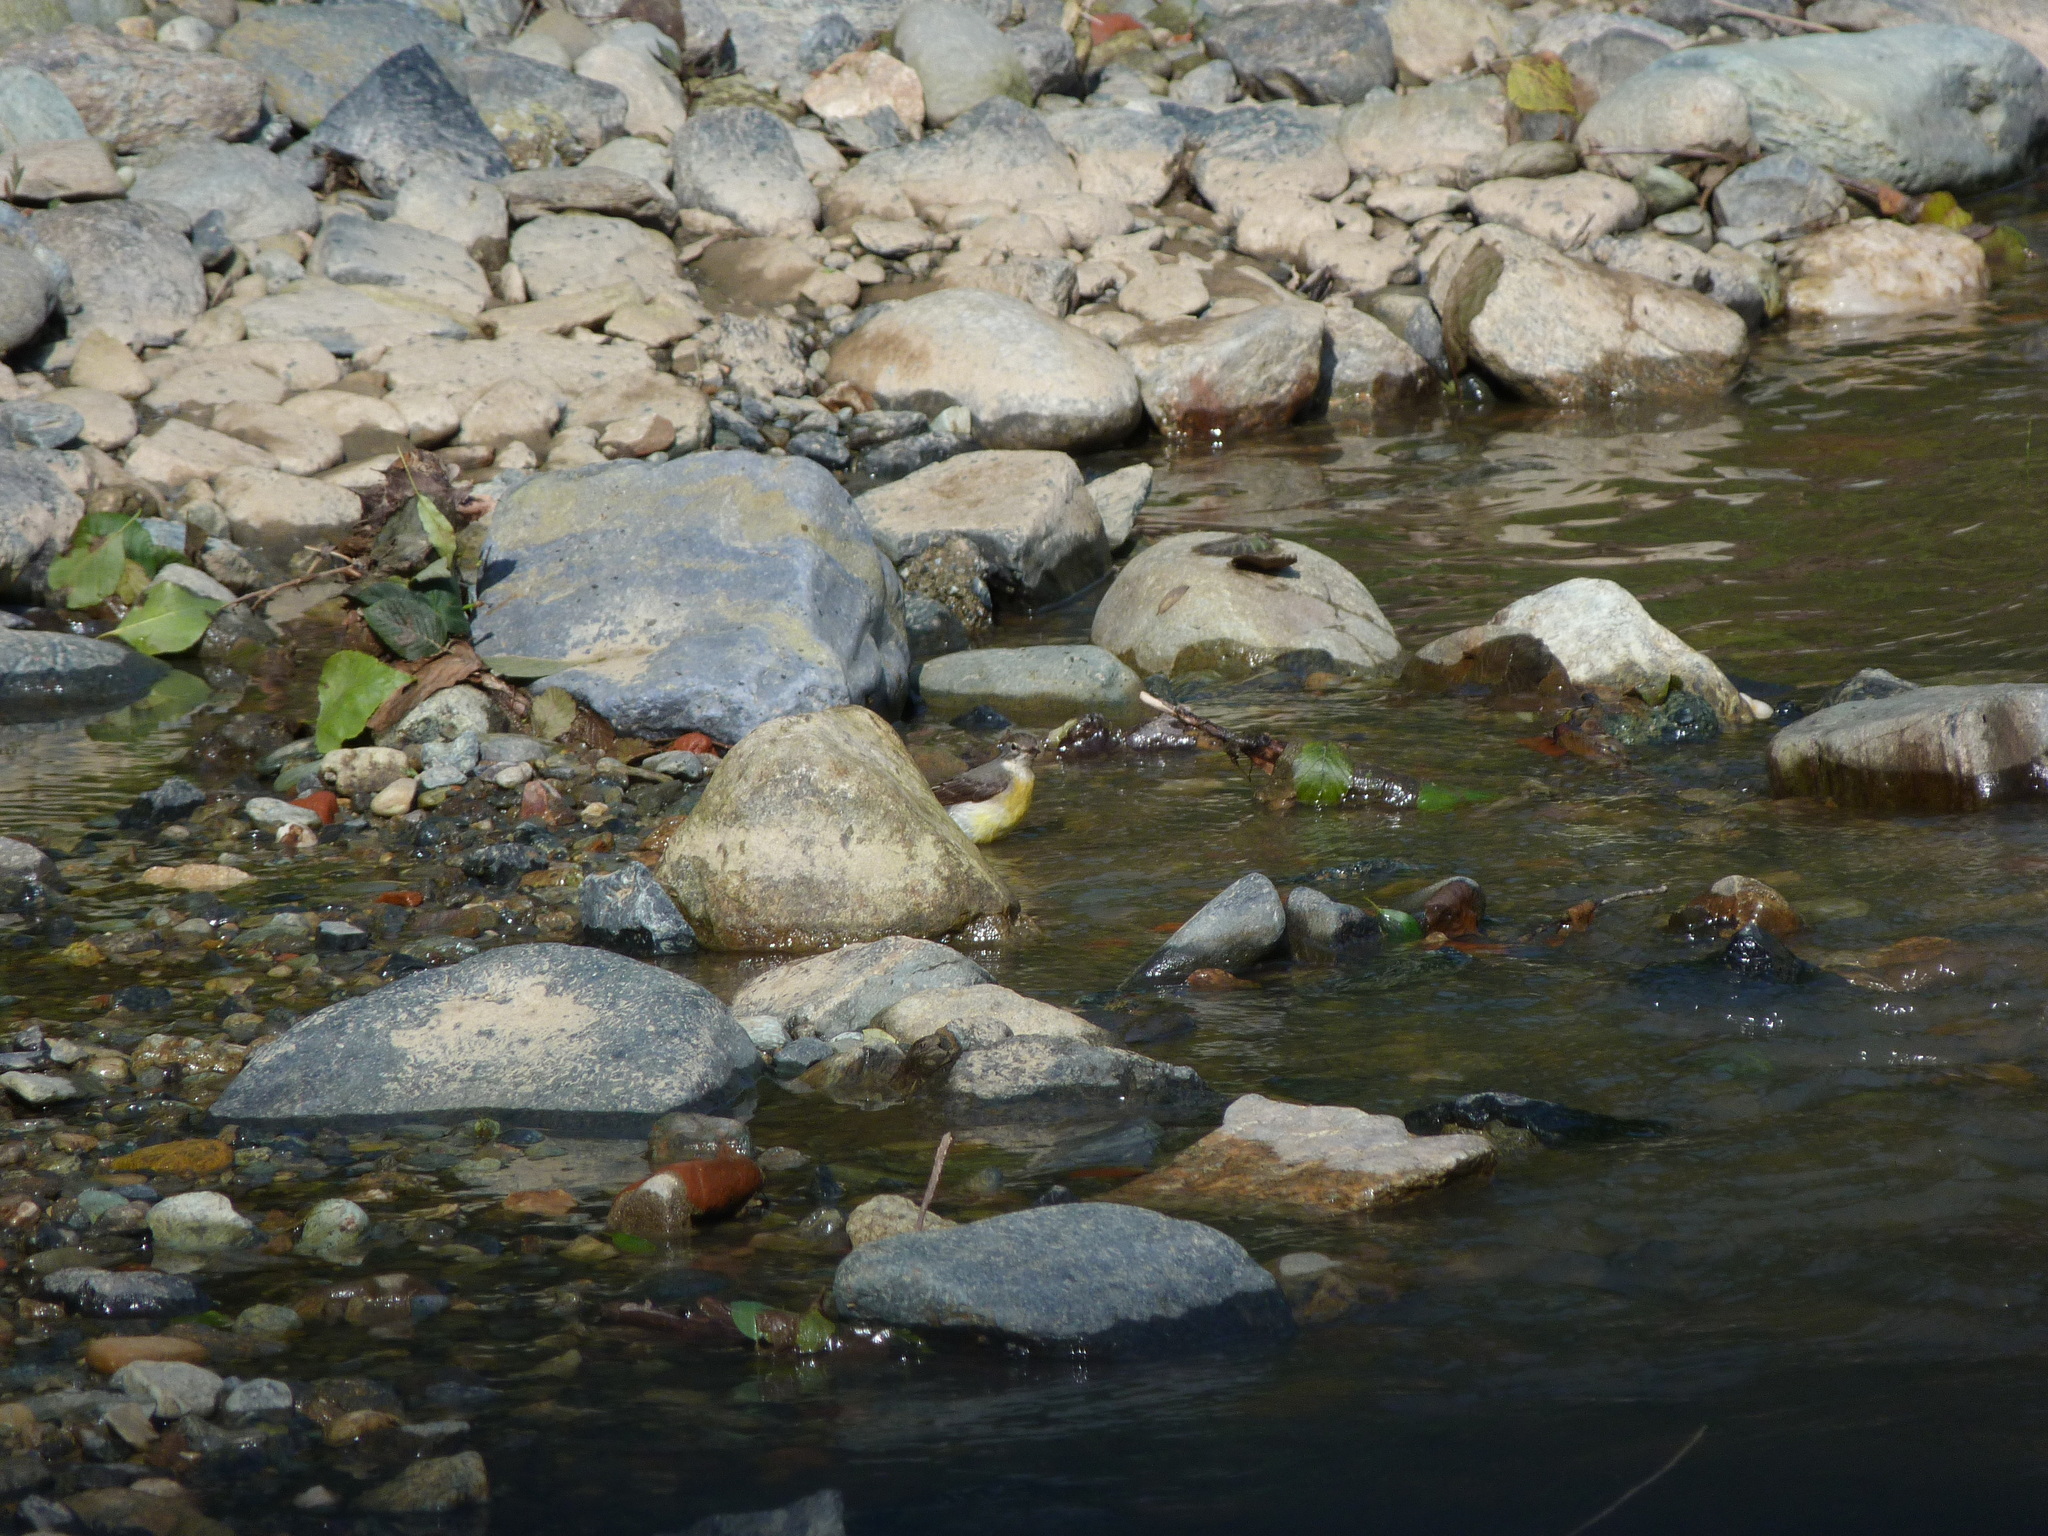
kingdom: Animalia
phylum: Chordata
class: Aves
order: Passeriformes
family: Motacillidae
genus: Motacilla
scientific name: Motacilla cinerea
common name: Grey wagtail
